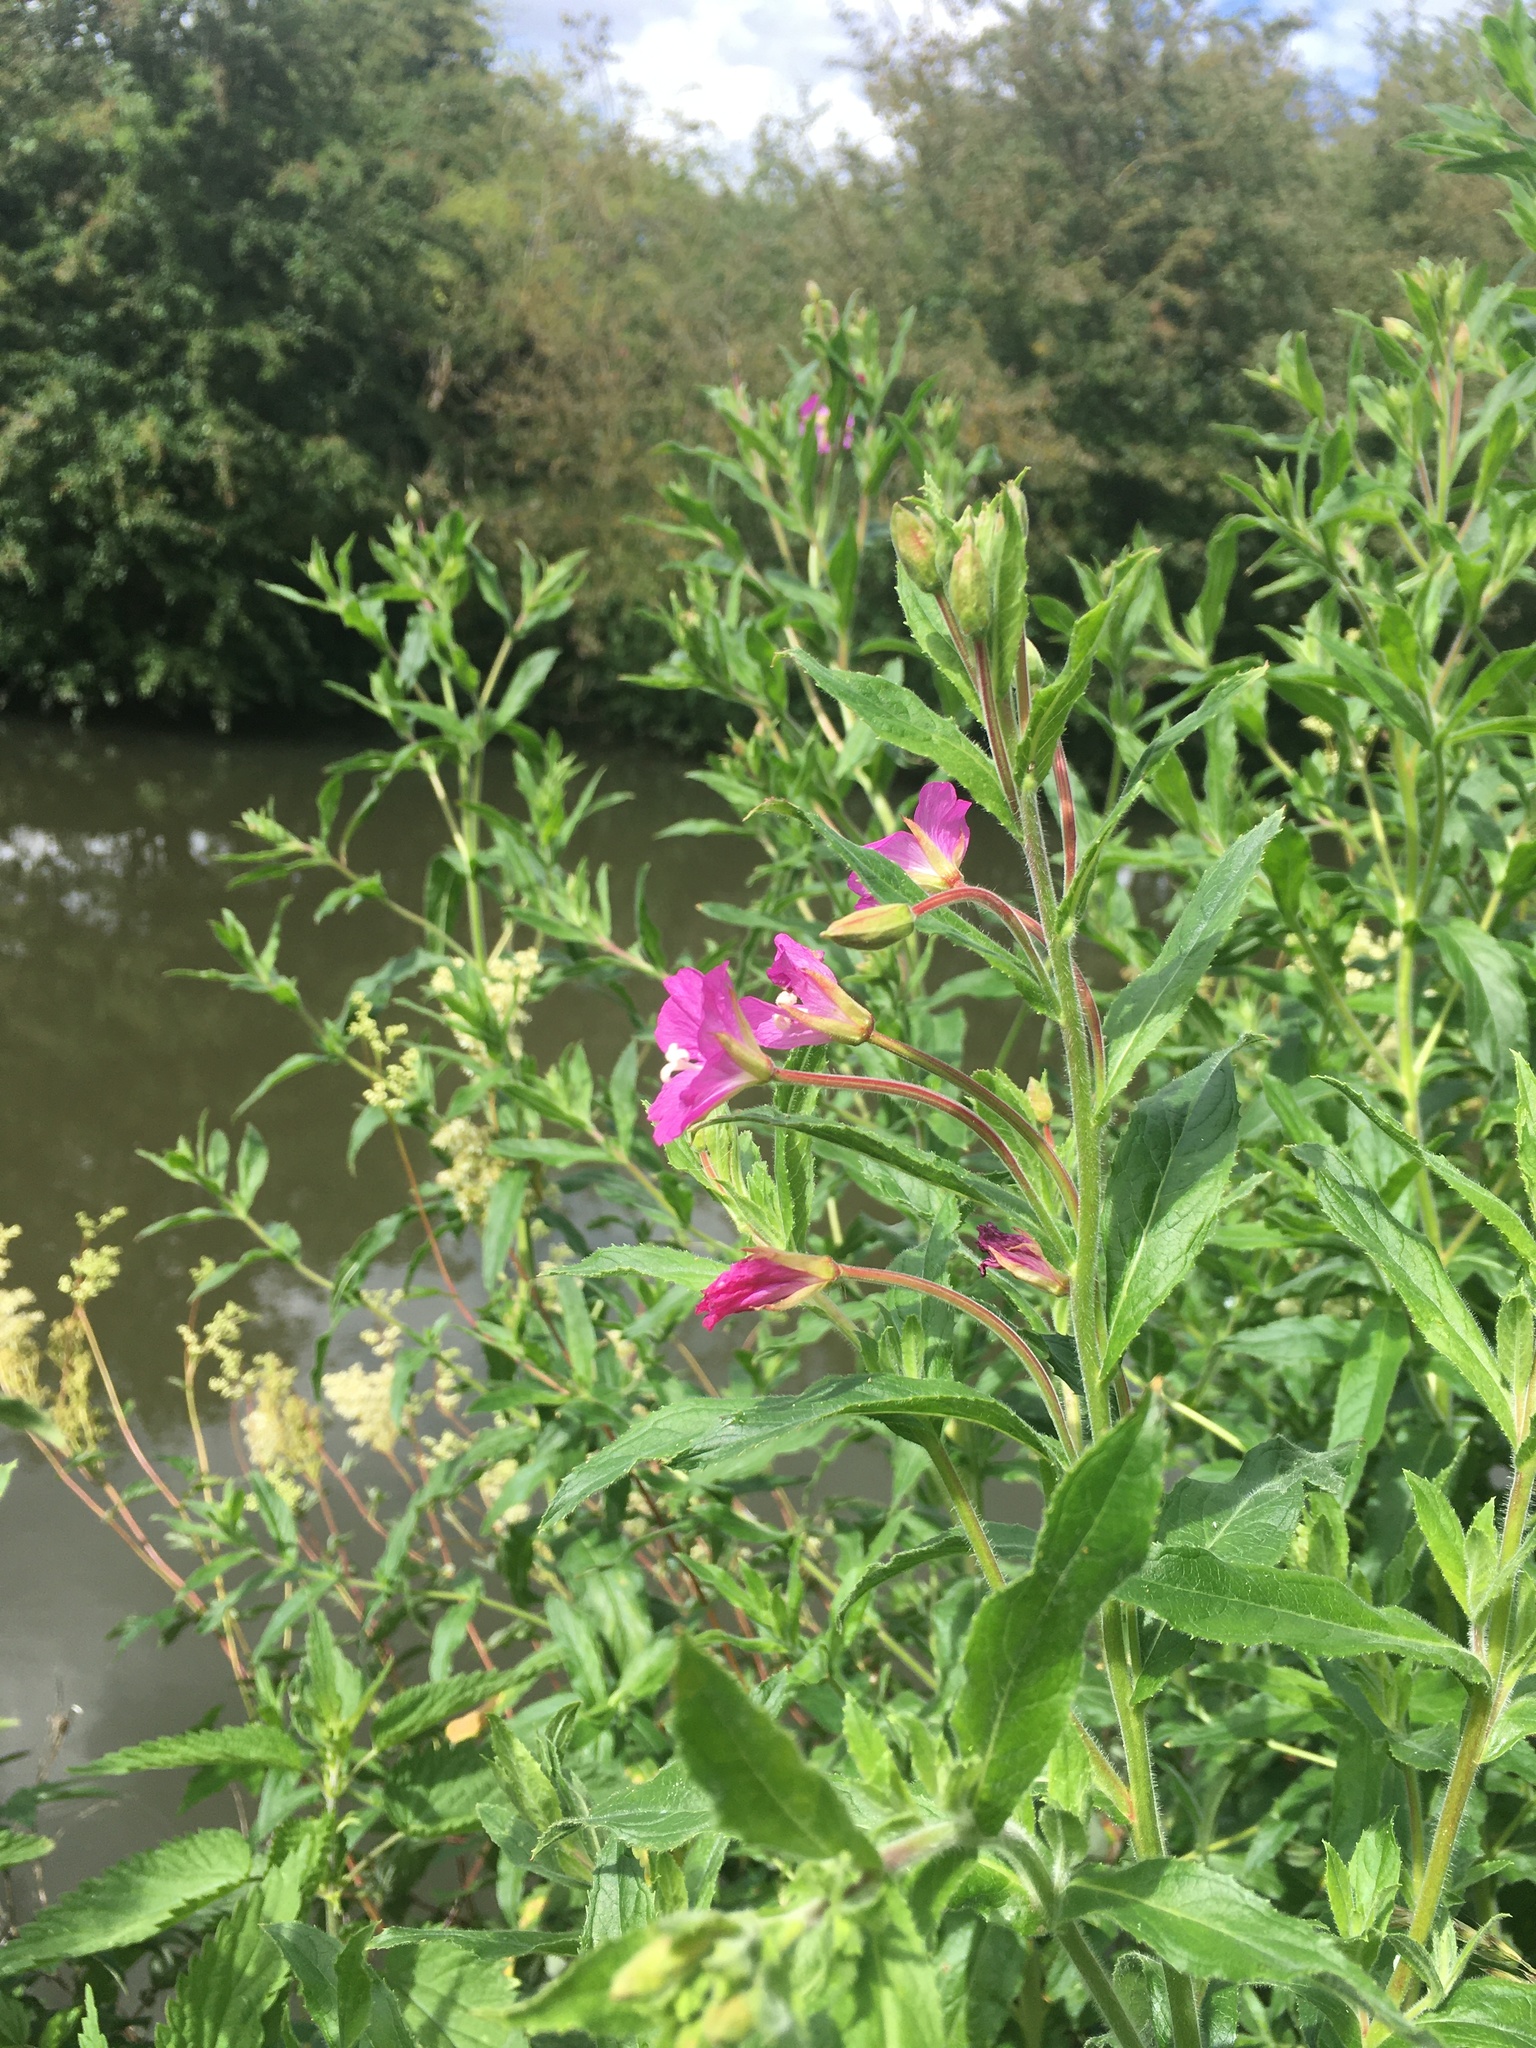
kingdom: Plantae
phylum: Tracheophyta
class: Magnoliopsida
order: Myrtales
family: Onagraceae
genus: Epilobium
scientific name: Epilobium hirsutum
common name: Great willowherb
